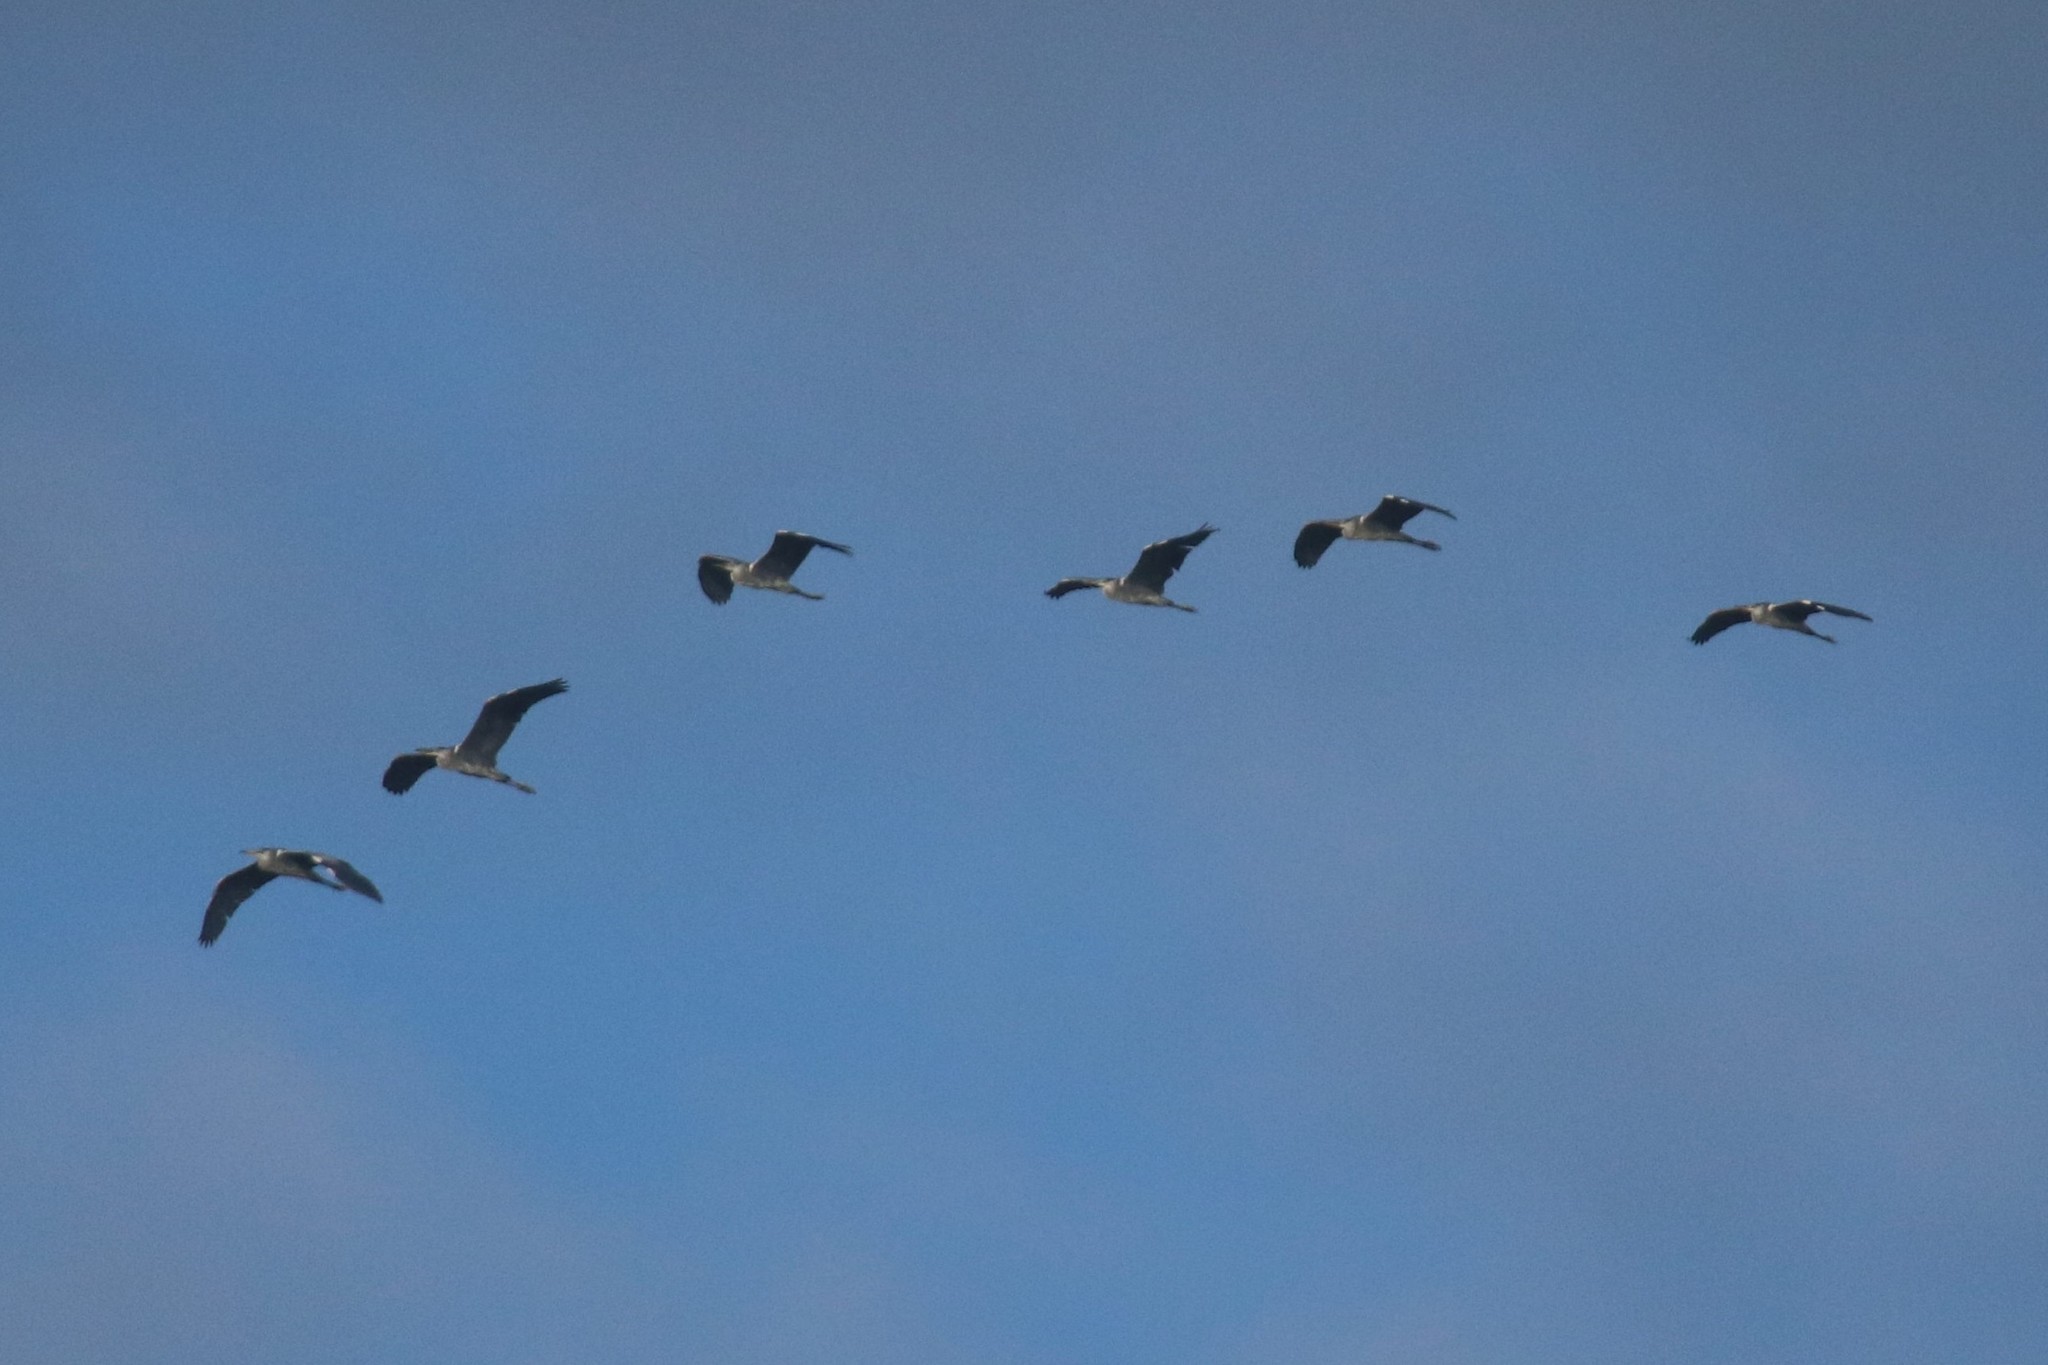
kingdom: Animalia
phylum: Chordata
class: Aves
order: Pelecaniformes
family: Ardeidae
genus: Ardea
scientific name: Ardea cinerea
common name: Grey heron
